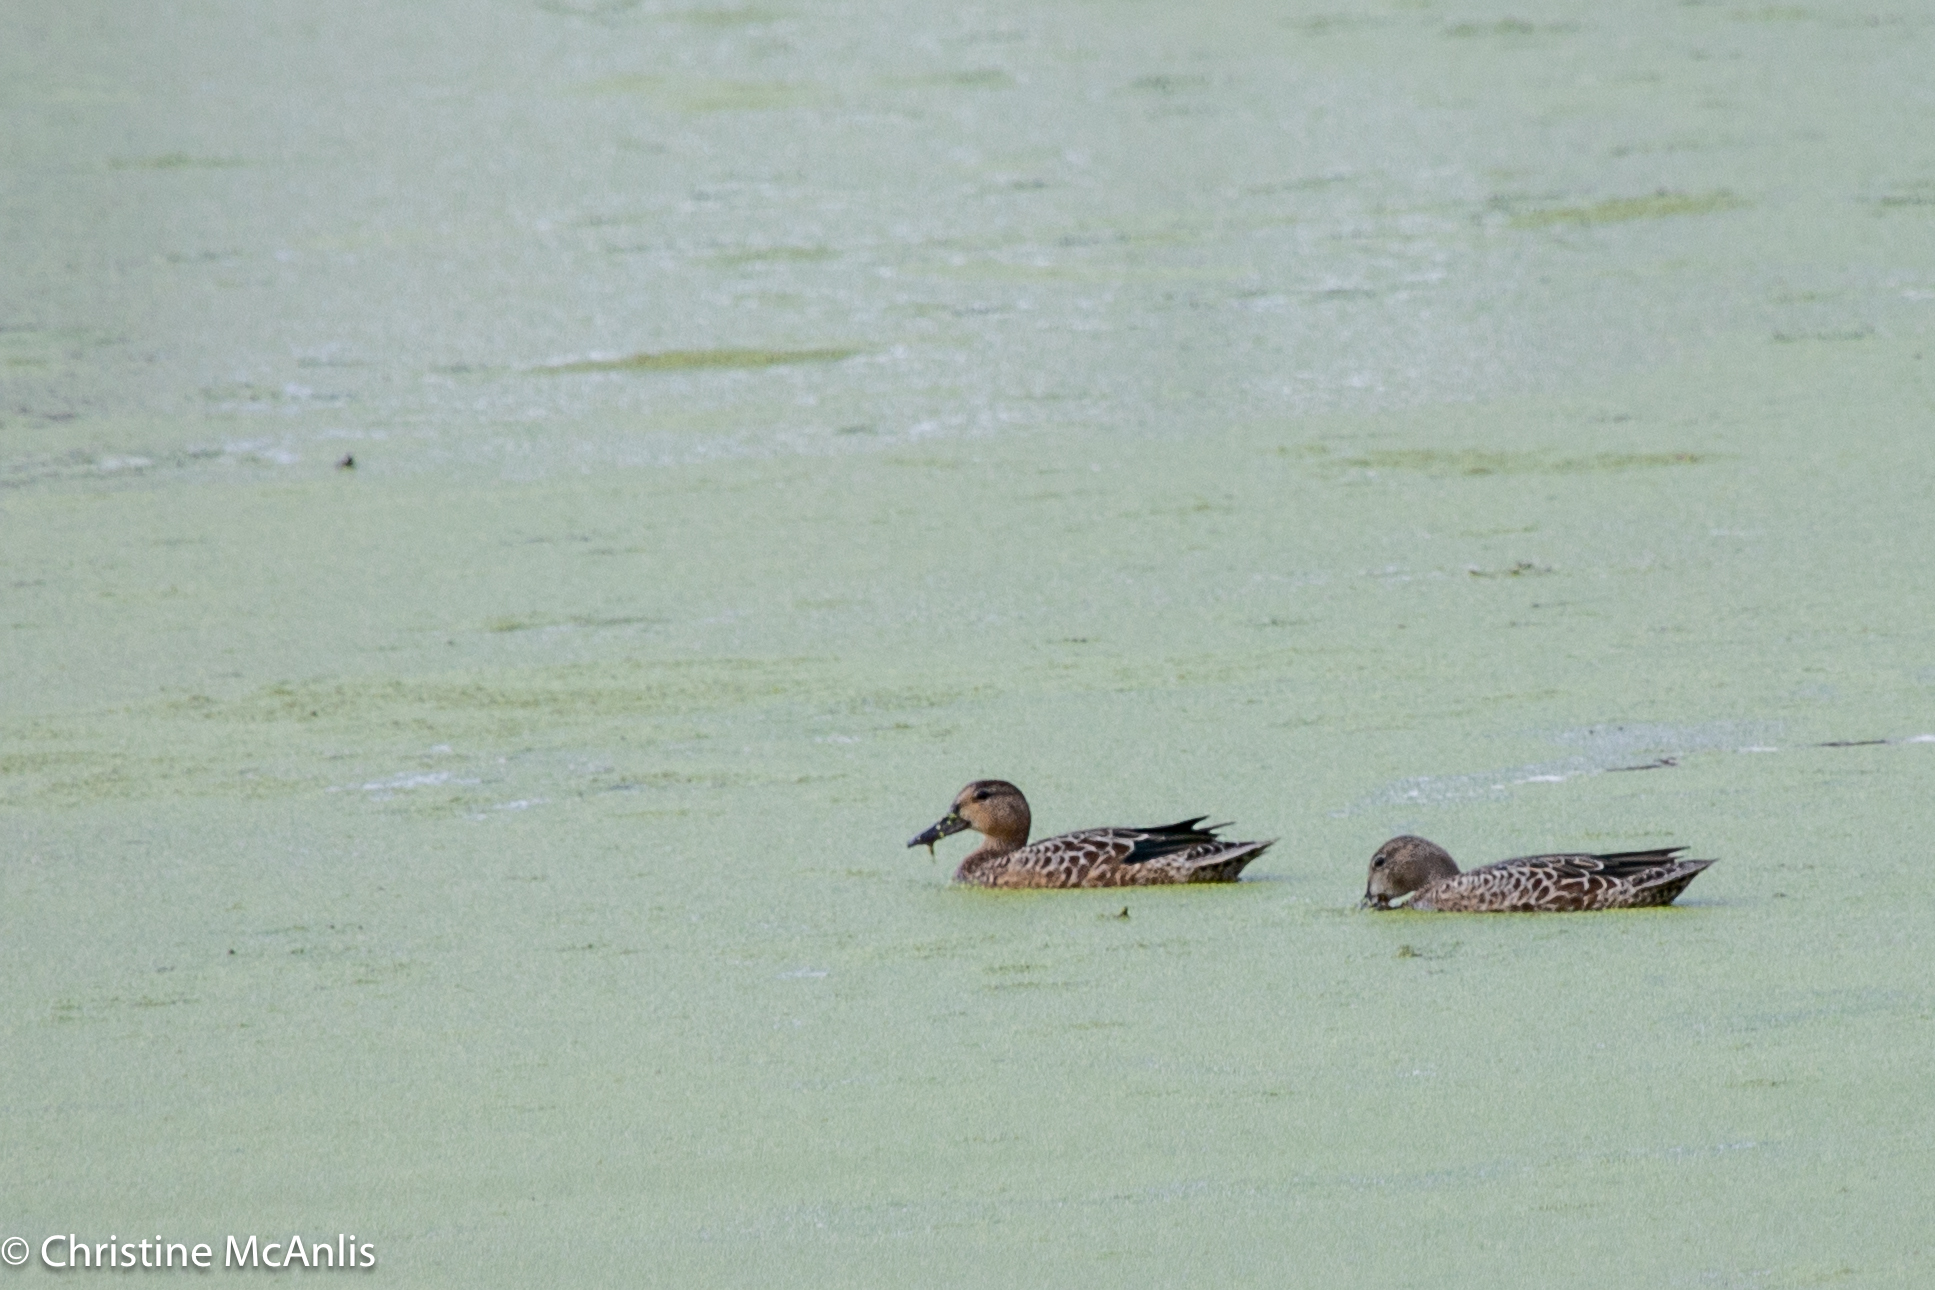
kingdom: Animalia
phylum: Chordata
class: Aves
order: Anseriformes
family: Anatidae
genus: Spatula
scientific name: Spatula discors
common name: Blue-winged teal
